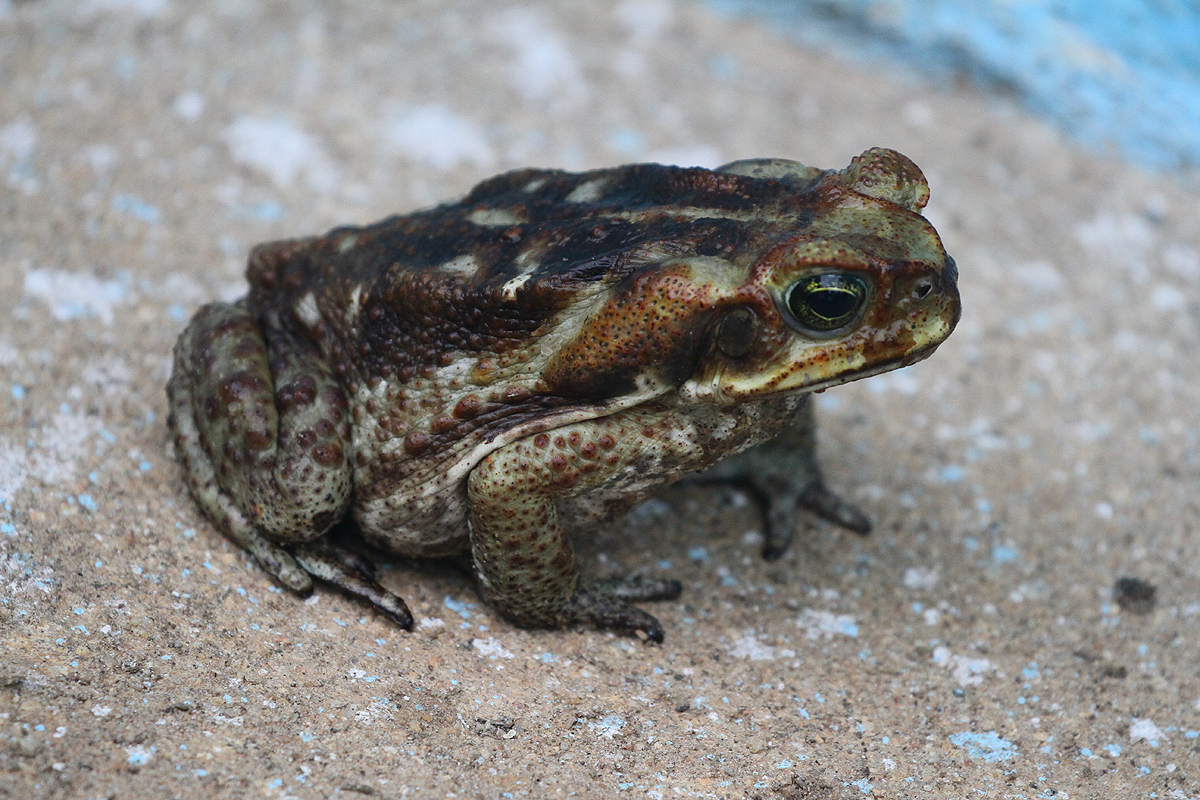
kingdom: Animalia
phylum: Chordata
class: Amphibia
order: Anura
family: Bufonidae
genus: Rhinella
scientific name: Rhinella diptycha
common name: Cope's toad
